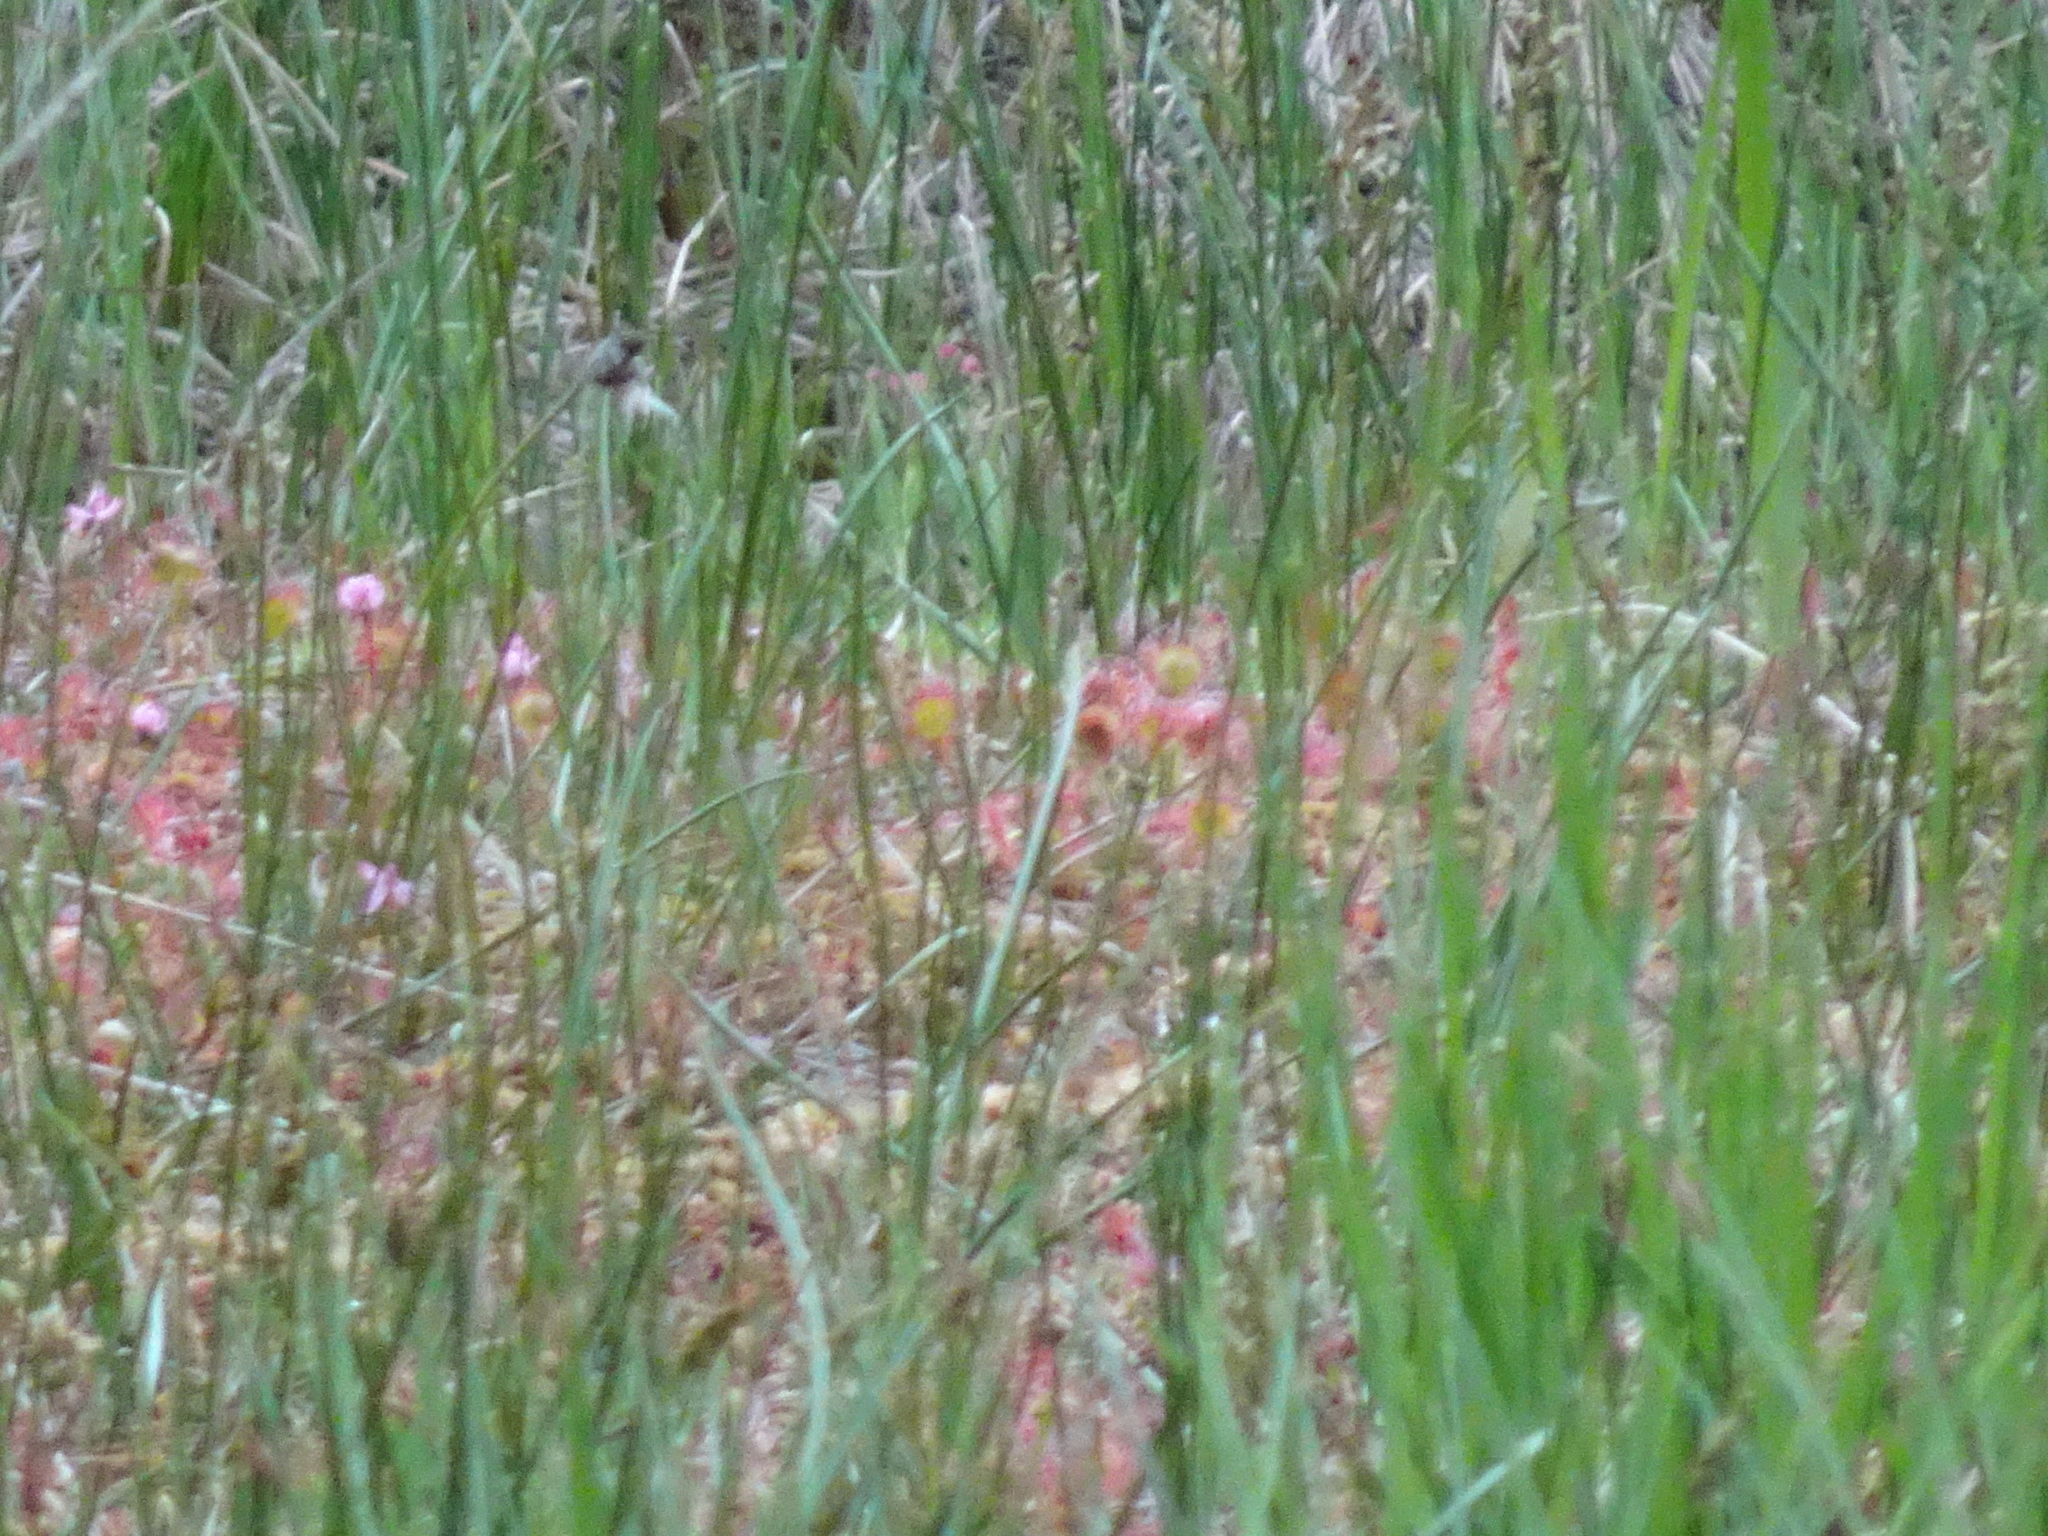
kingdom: Plantae
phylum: Tracheophyta
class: Magnoliopsida
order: Caryophyllales
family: Droseraceae
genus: Drosera
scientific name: Drosera rotundifolia
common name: Round-leaved sundew
